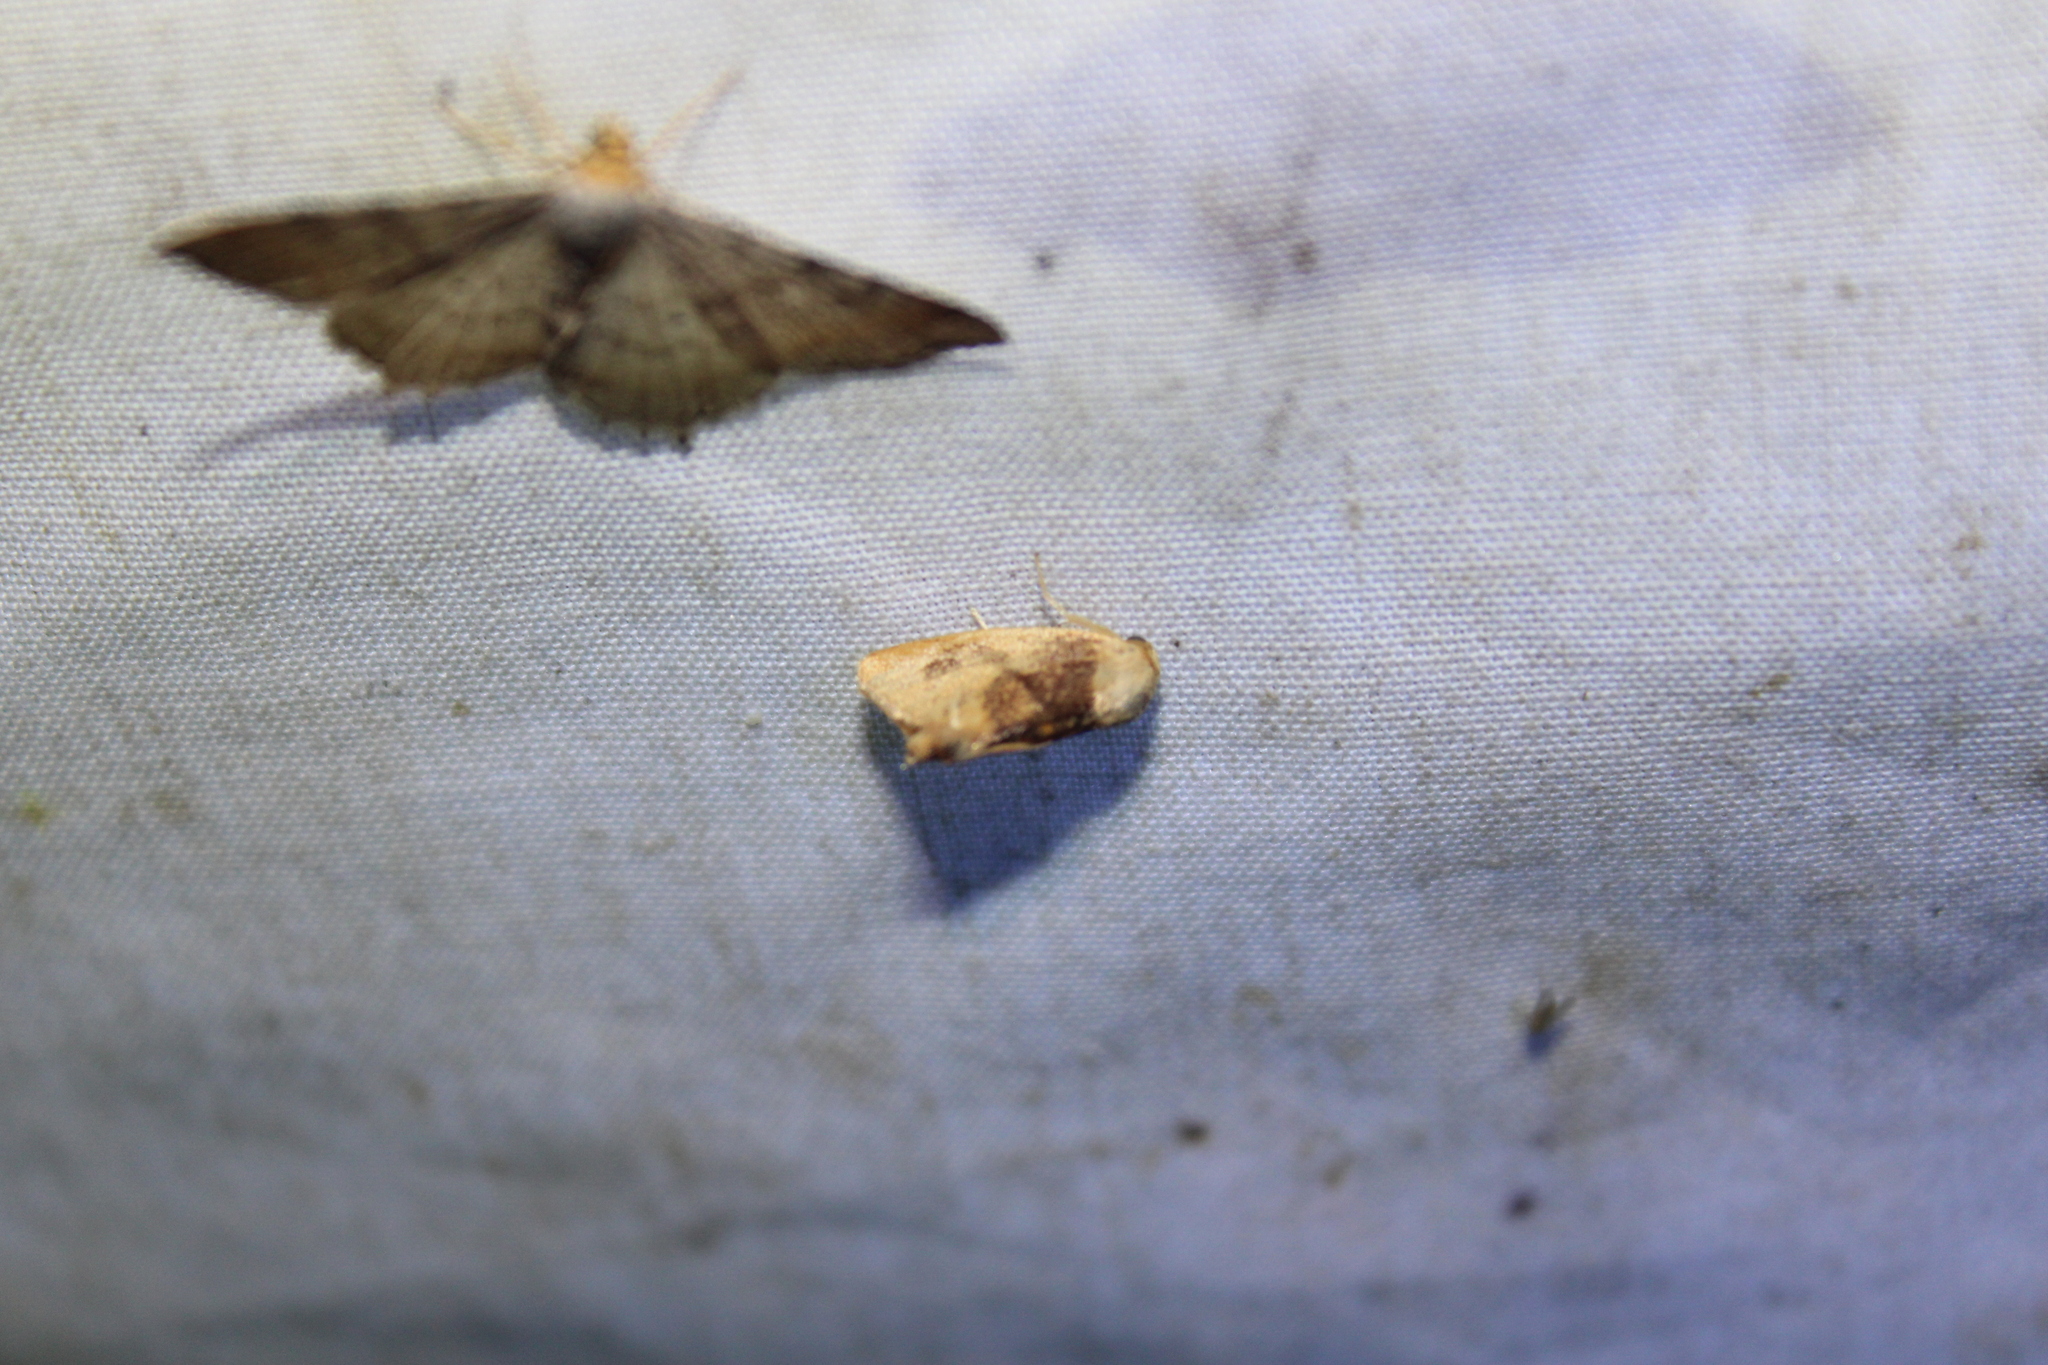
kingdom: Animalia
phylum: Arthropoda
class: Insecta
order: Lepidoptera
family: Limacodidae
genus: Tortricidia
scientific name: Tortricidia flexuosa
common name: Abbreviated button slug moth
